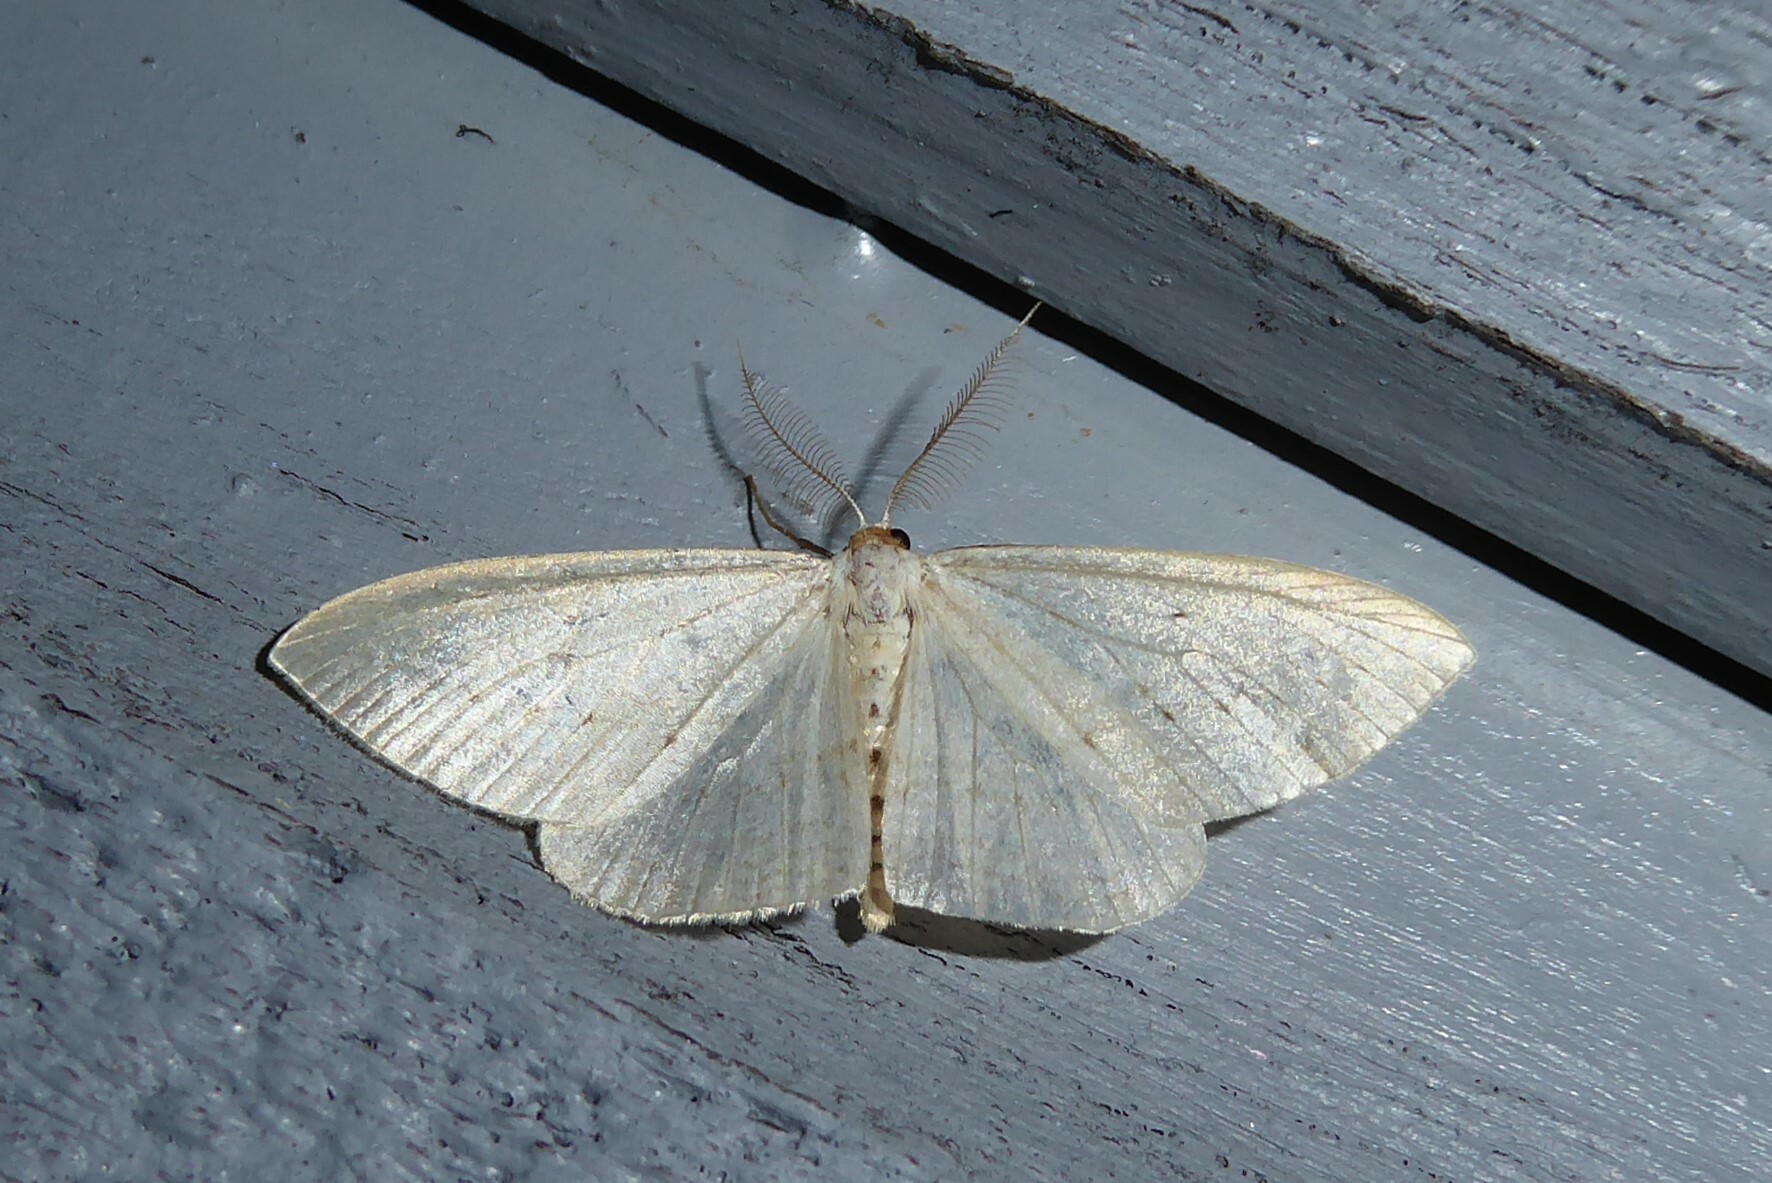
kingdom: Animalia
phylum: Arthropoda
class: Insecta
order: Lepidoptera
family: Geometridae
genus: Orthoclydon
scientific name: Orthoclydon praefectata
